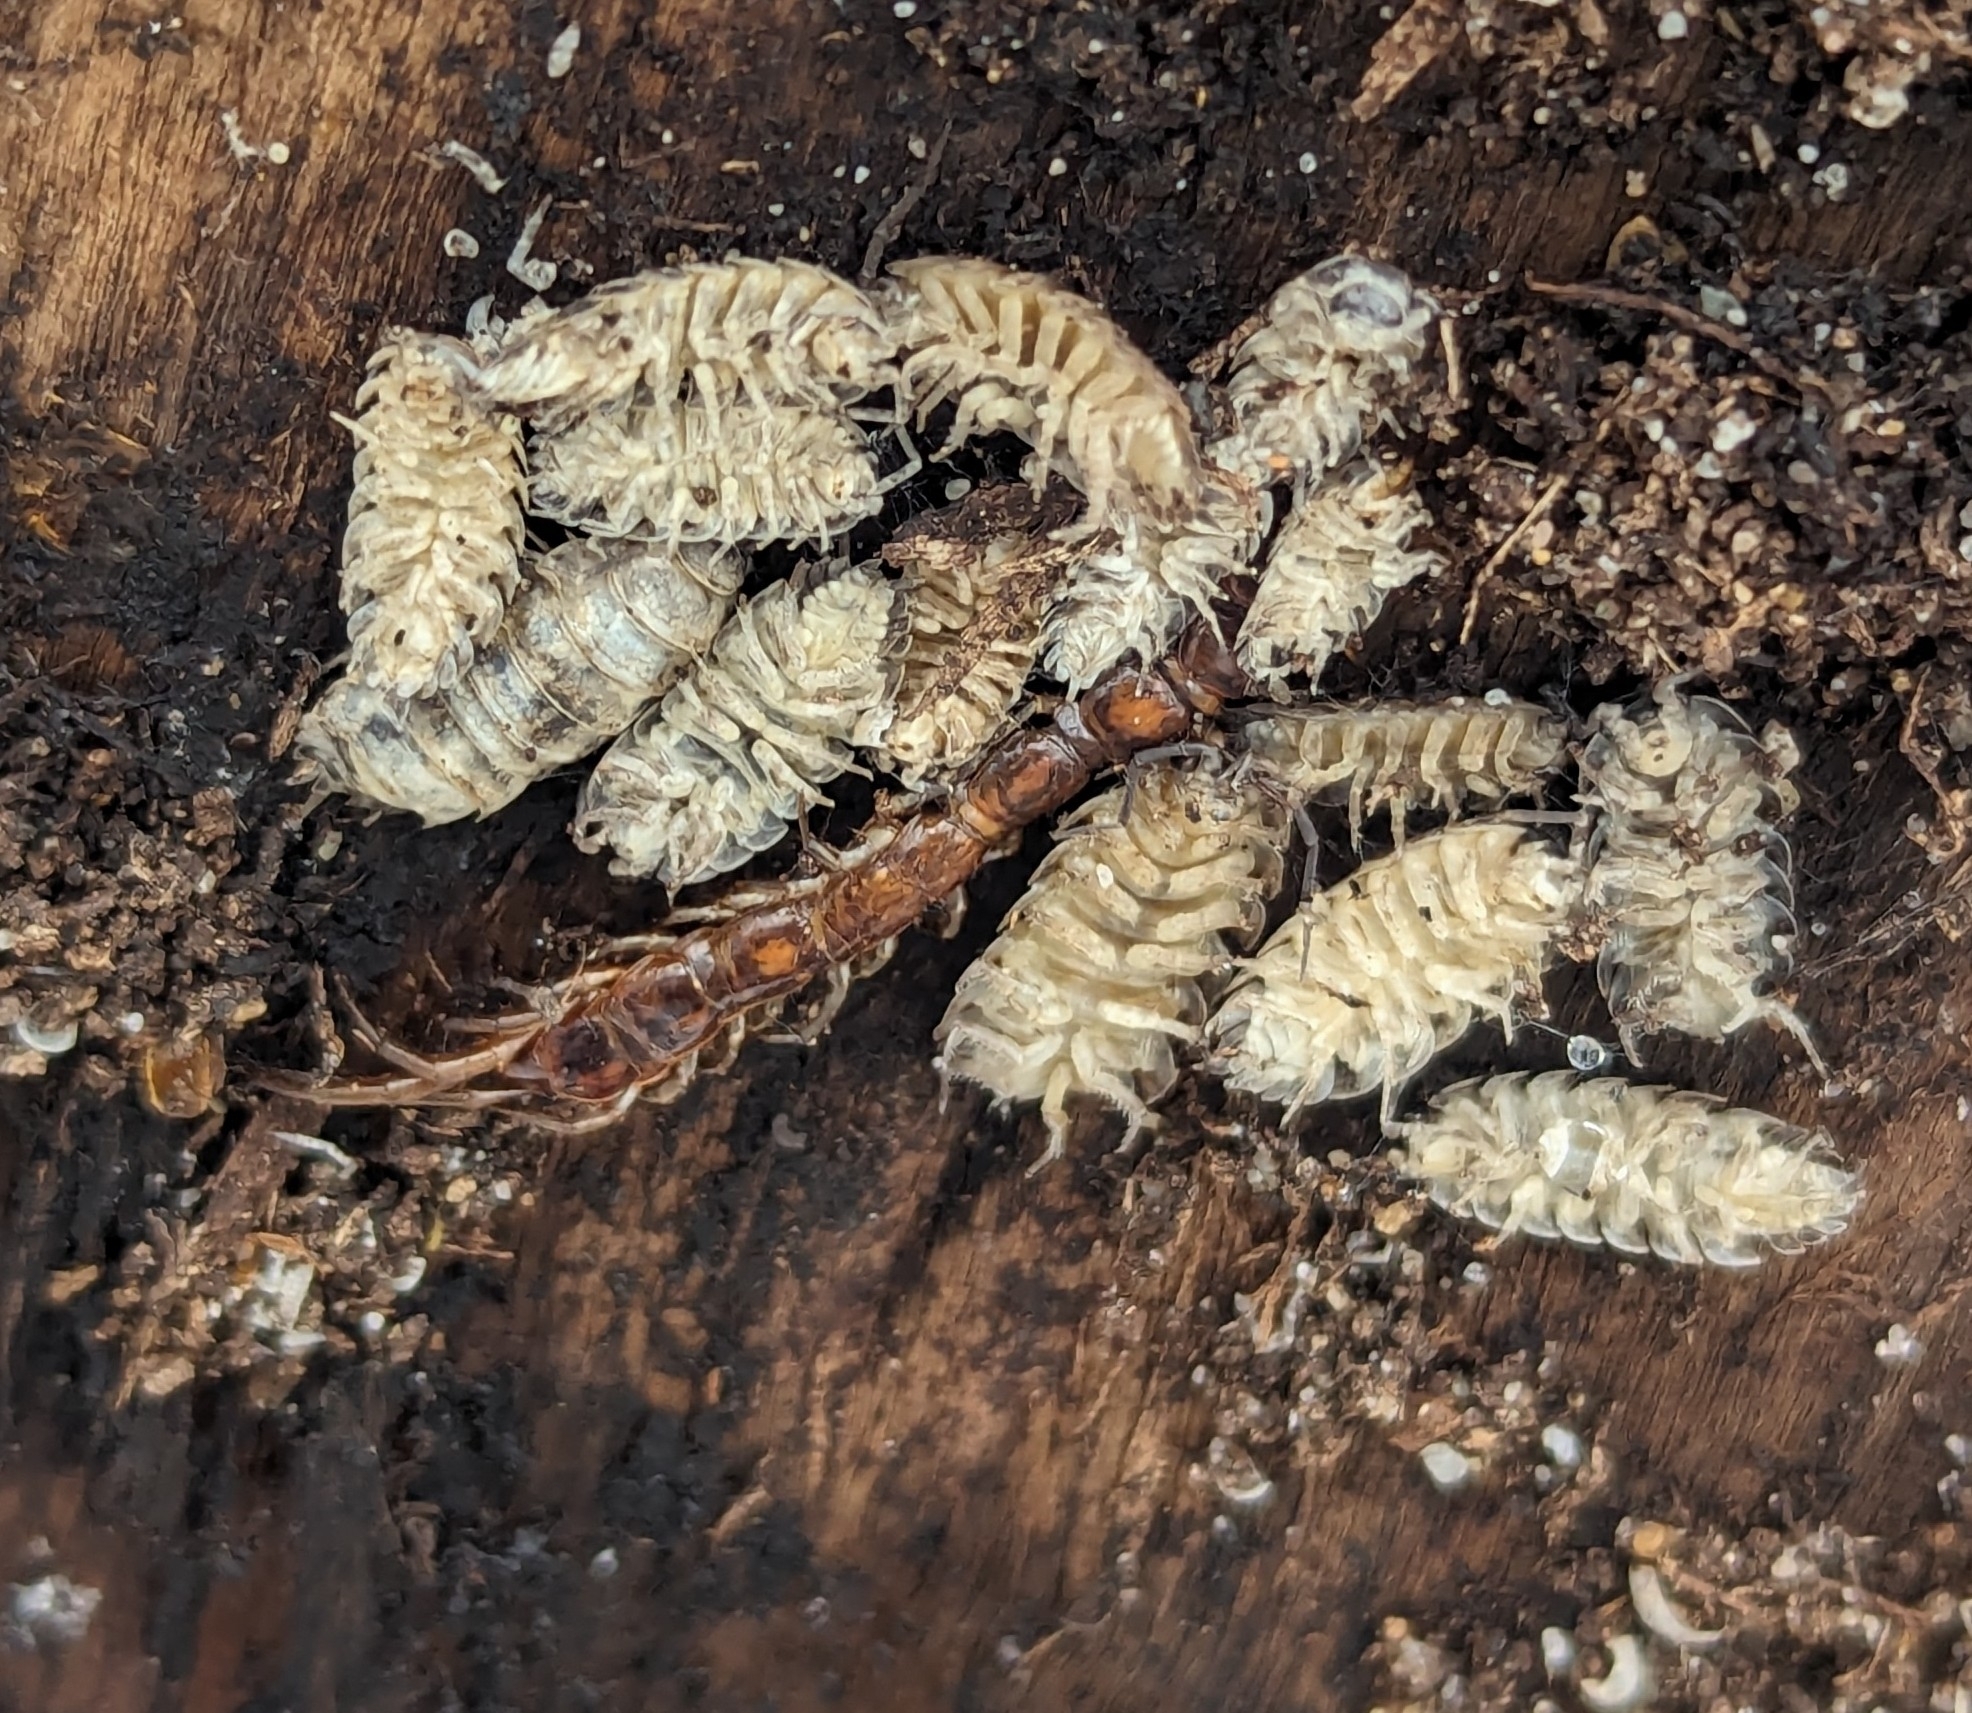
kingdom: Animalia
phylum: Arthropoda
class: Malacostraca
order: Isopoda
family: Trachelipodidae
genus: Trachelipus
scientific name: Trachelipus rathkii
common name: Isopod
